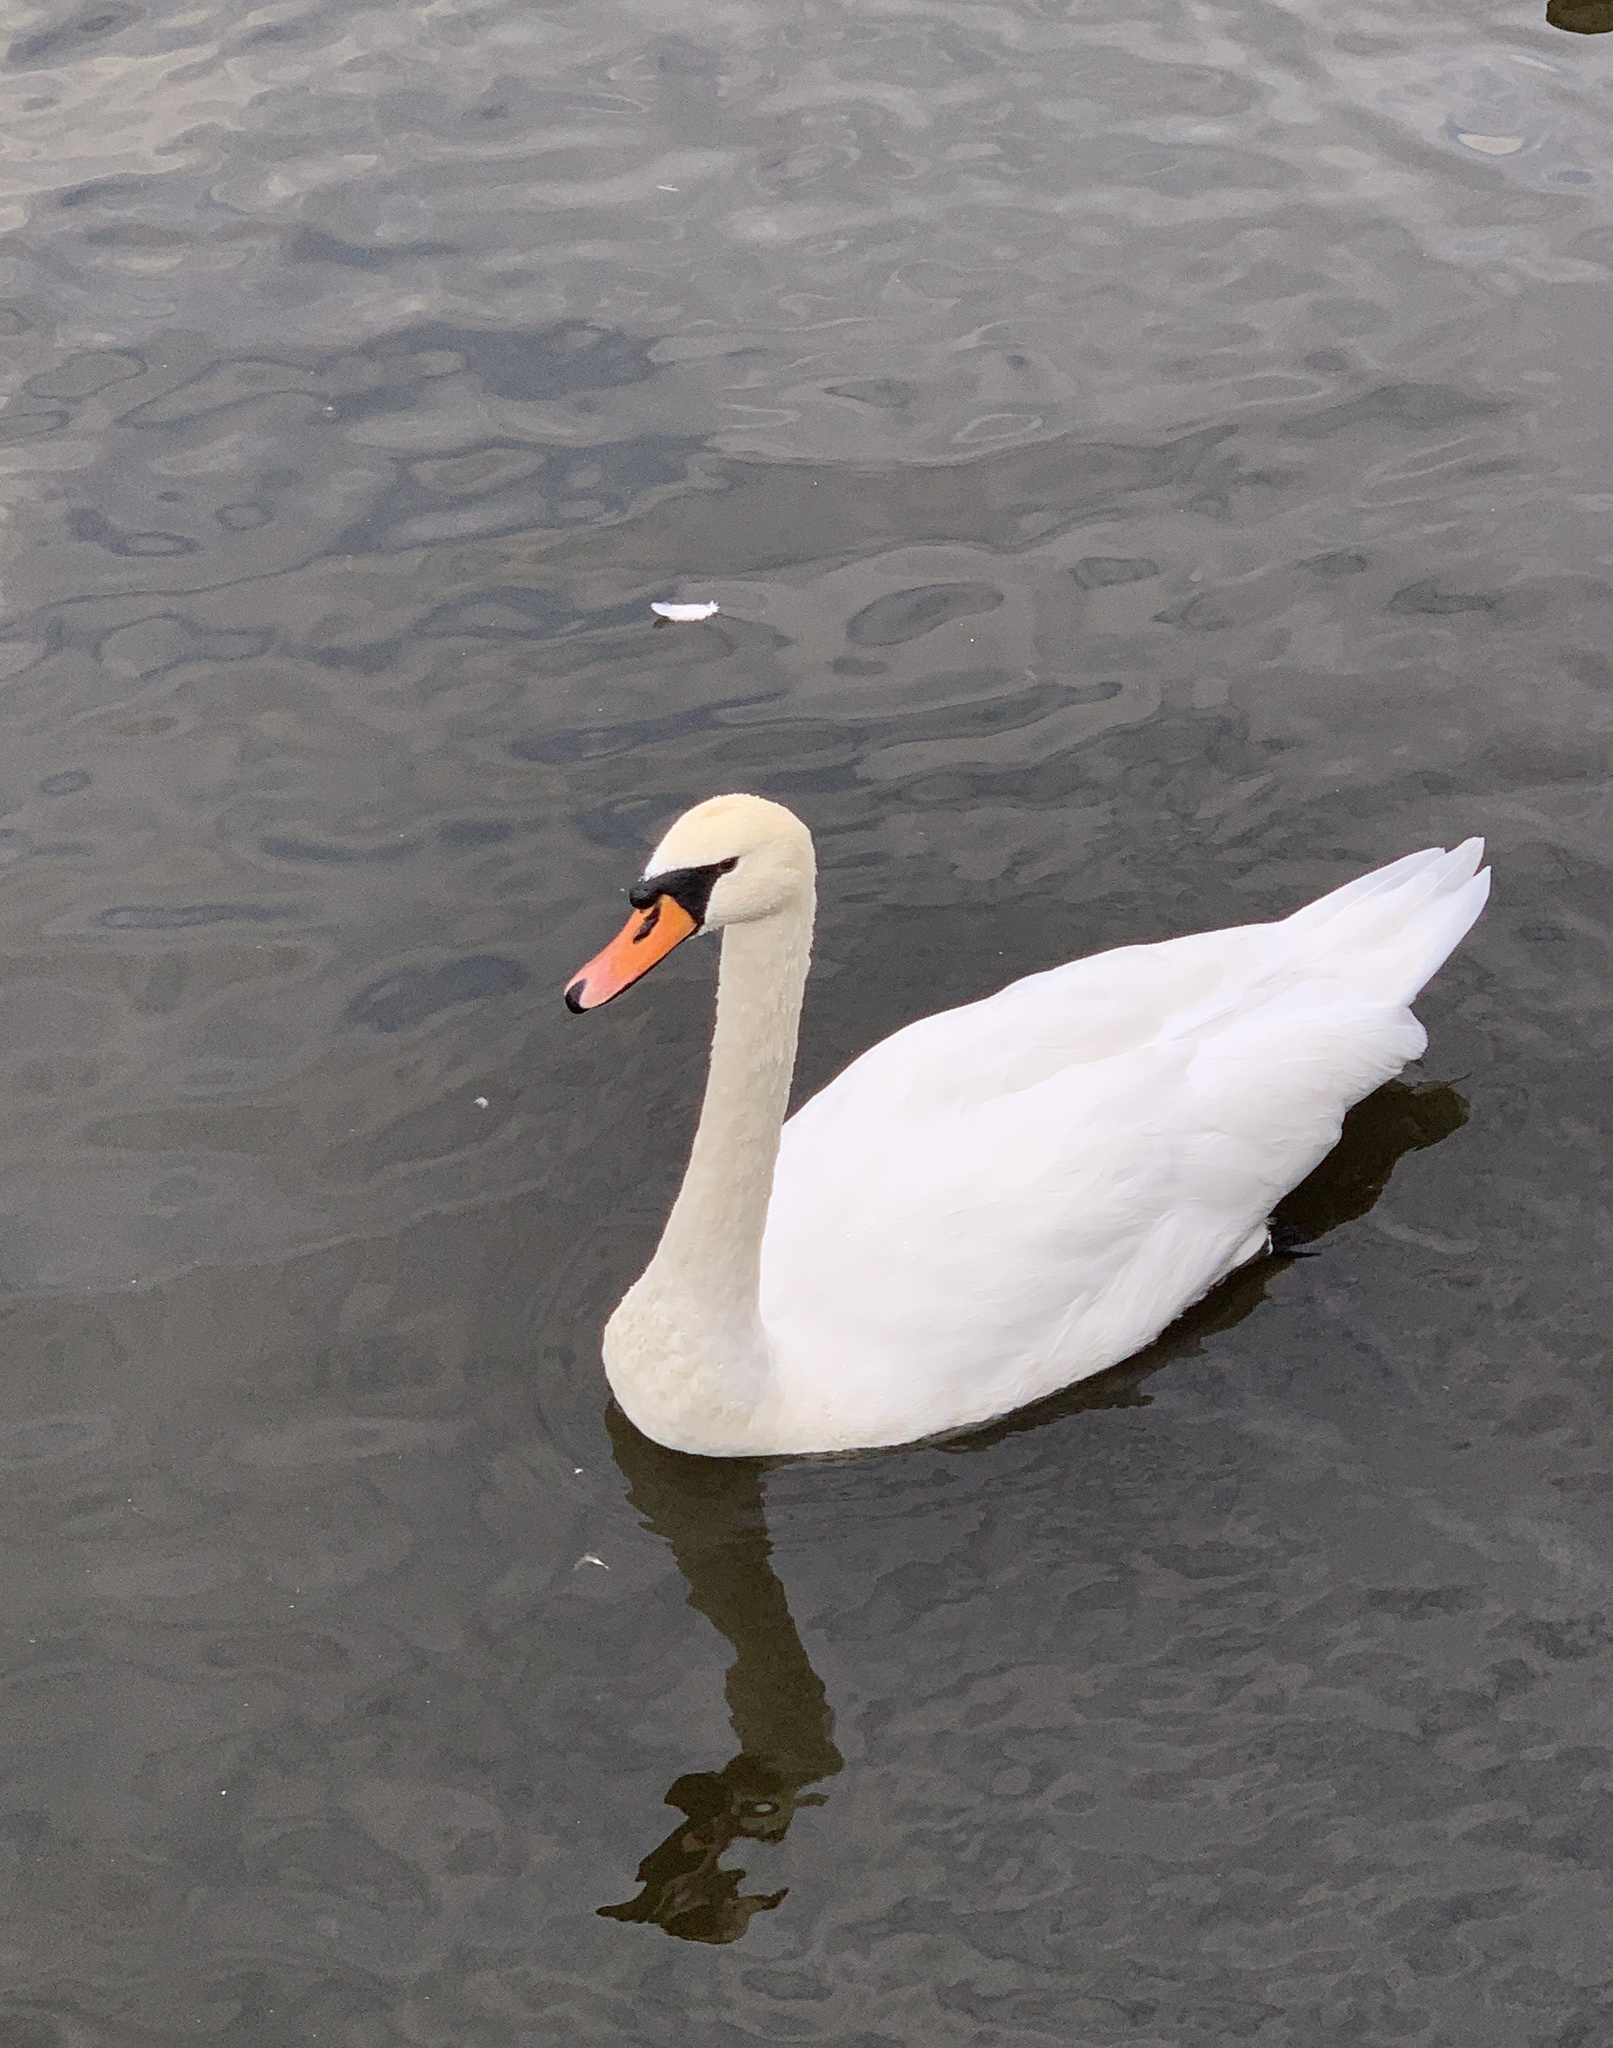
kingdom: Animalia
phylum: Chordata
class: Aves
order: Anseriformes
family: Anatidae
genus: Cygnus
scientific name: Cygnus olor
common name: Mute swan
